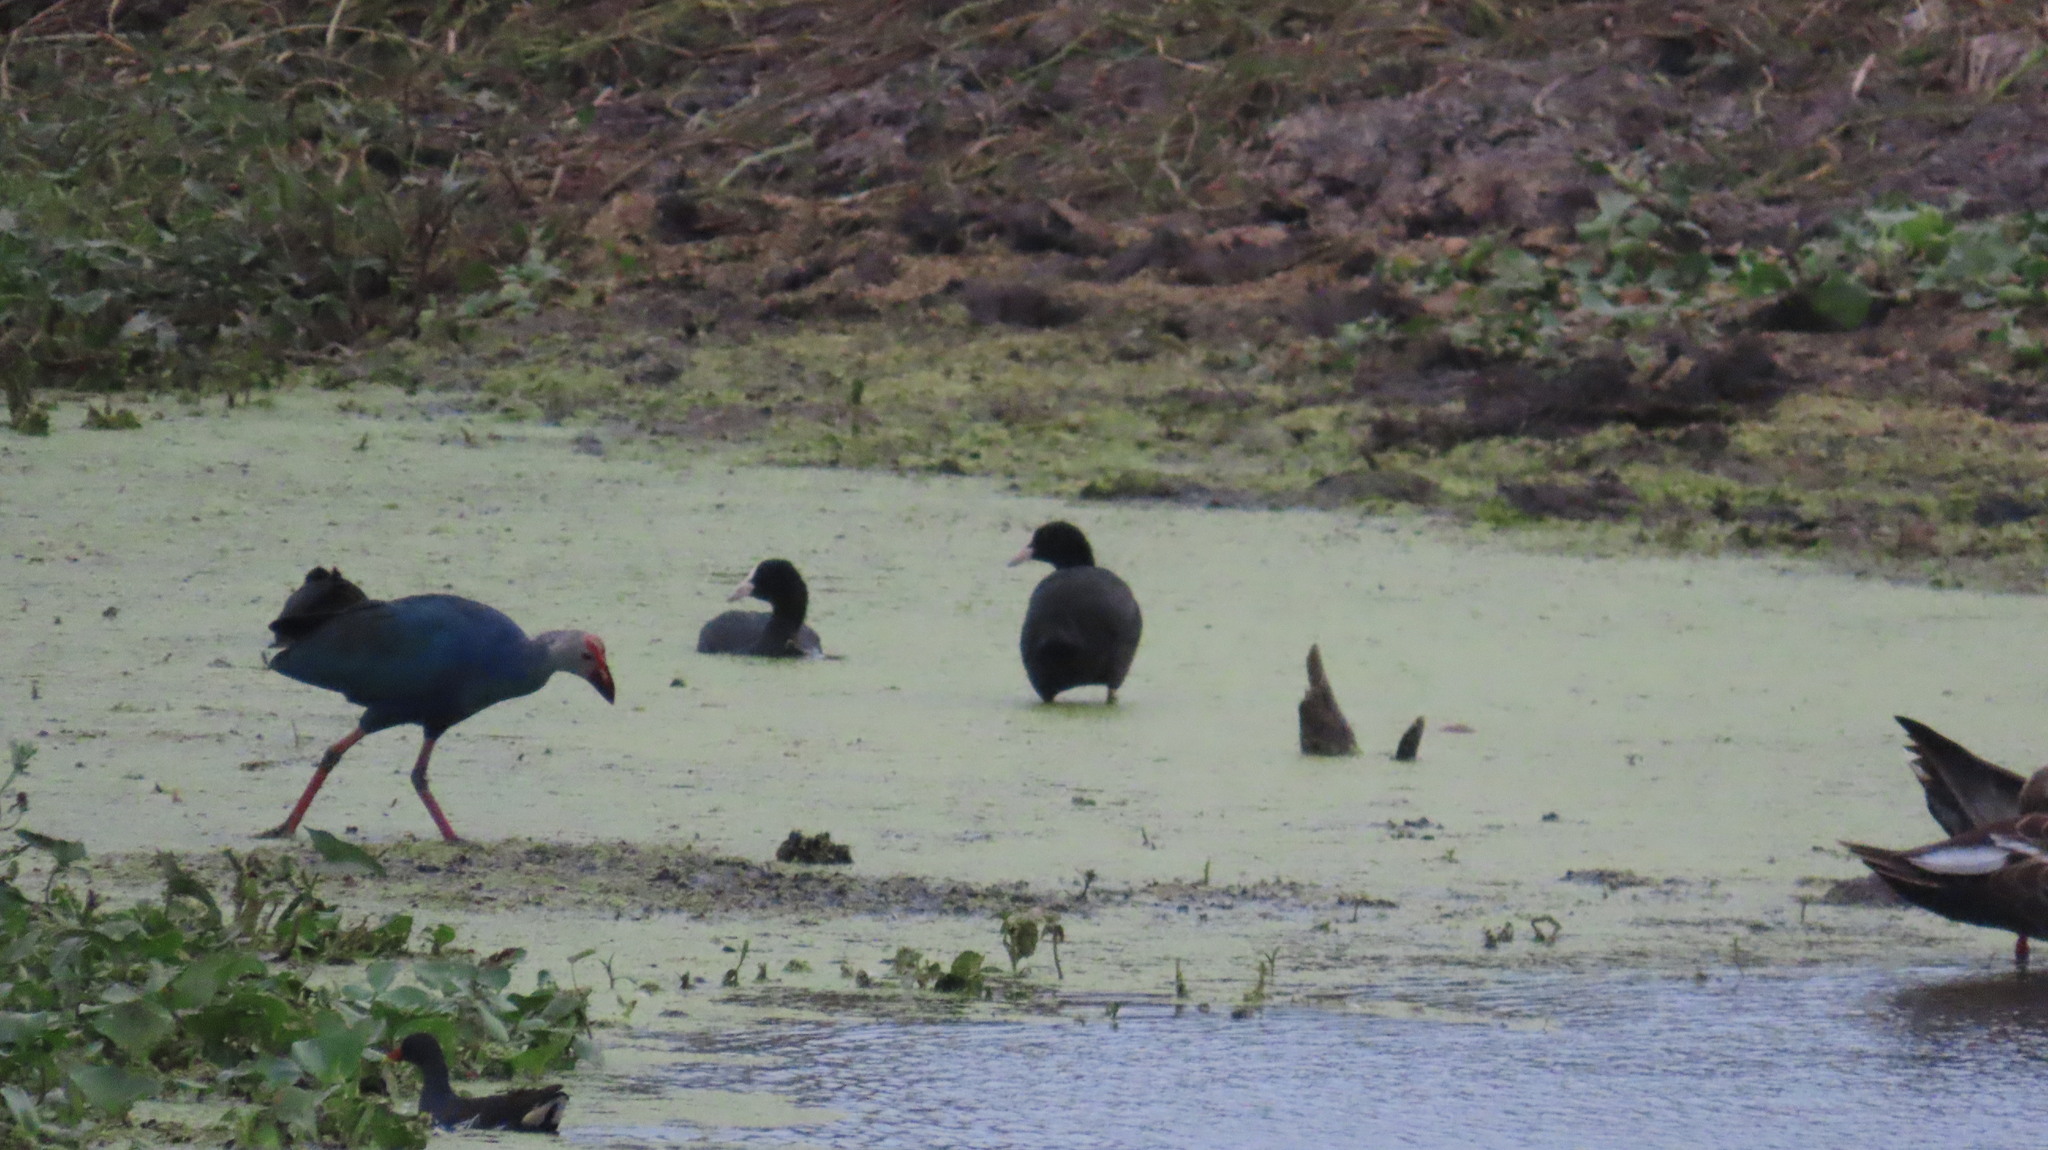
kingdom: Animalia
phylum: Chordata
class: Aves
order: Gruiformes
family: Rallidae
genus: Porphyrio
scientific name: Porphyrio porphyrio
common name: Purple swamphen
